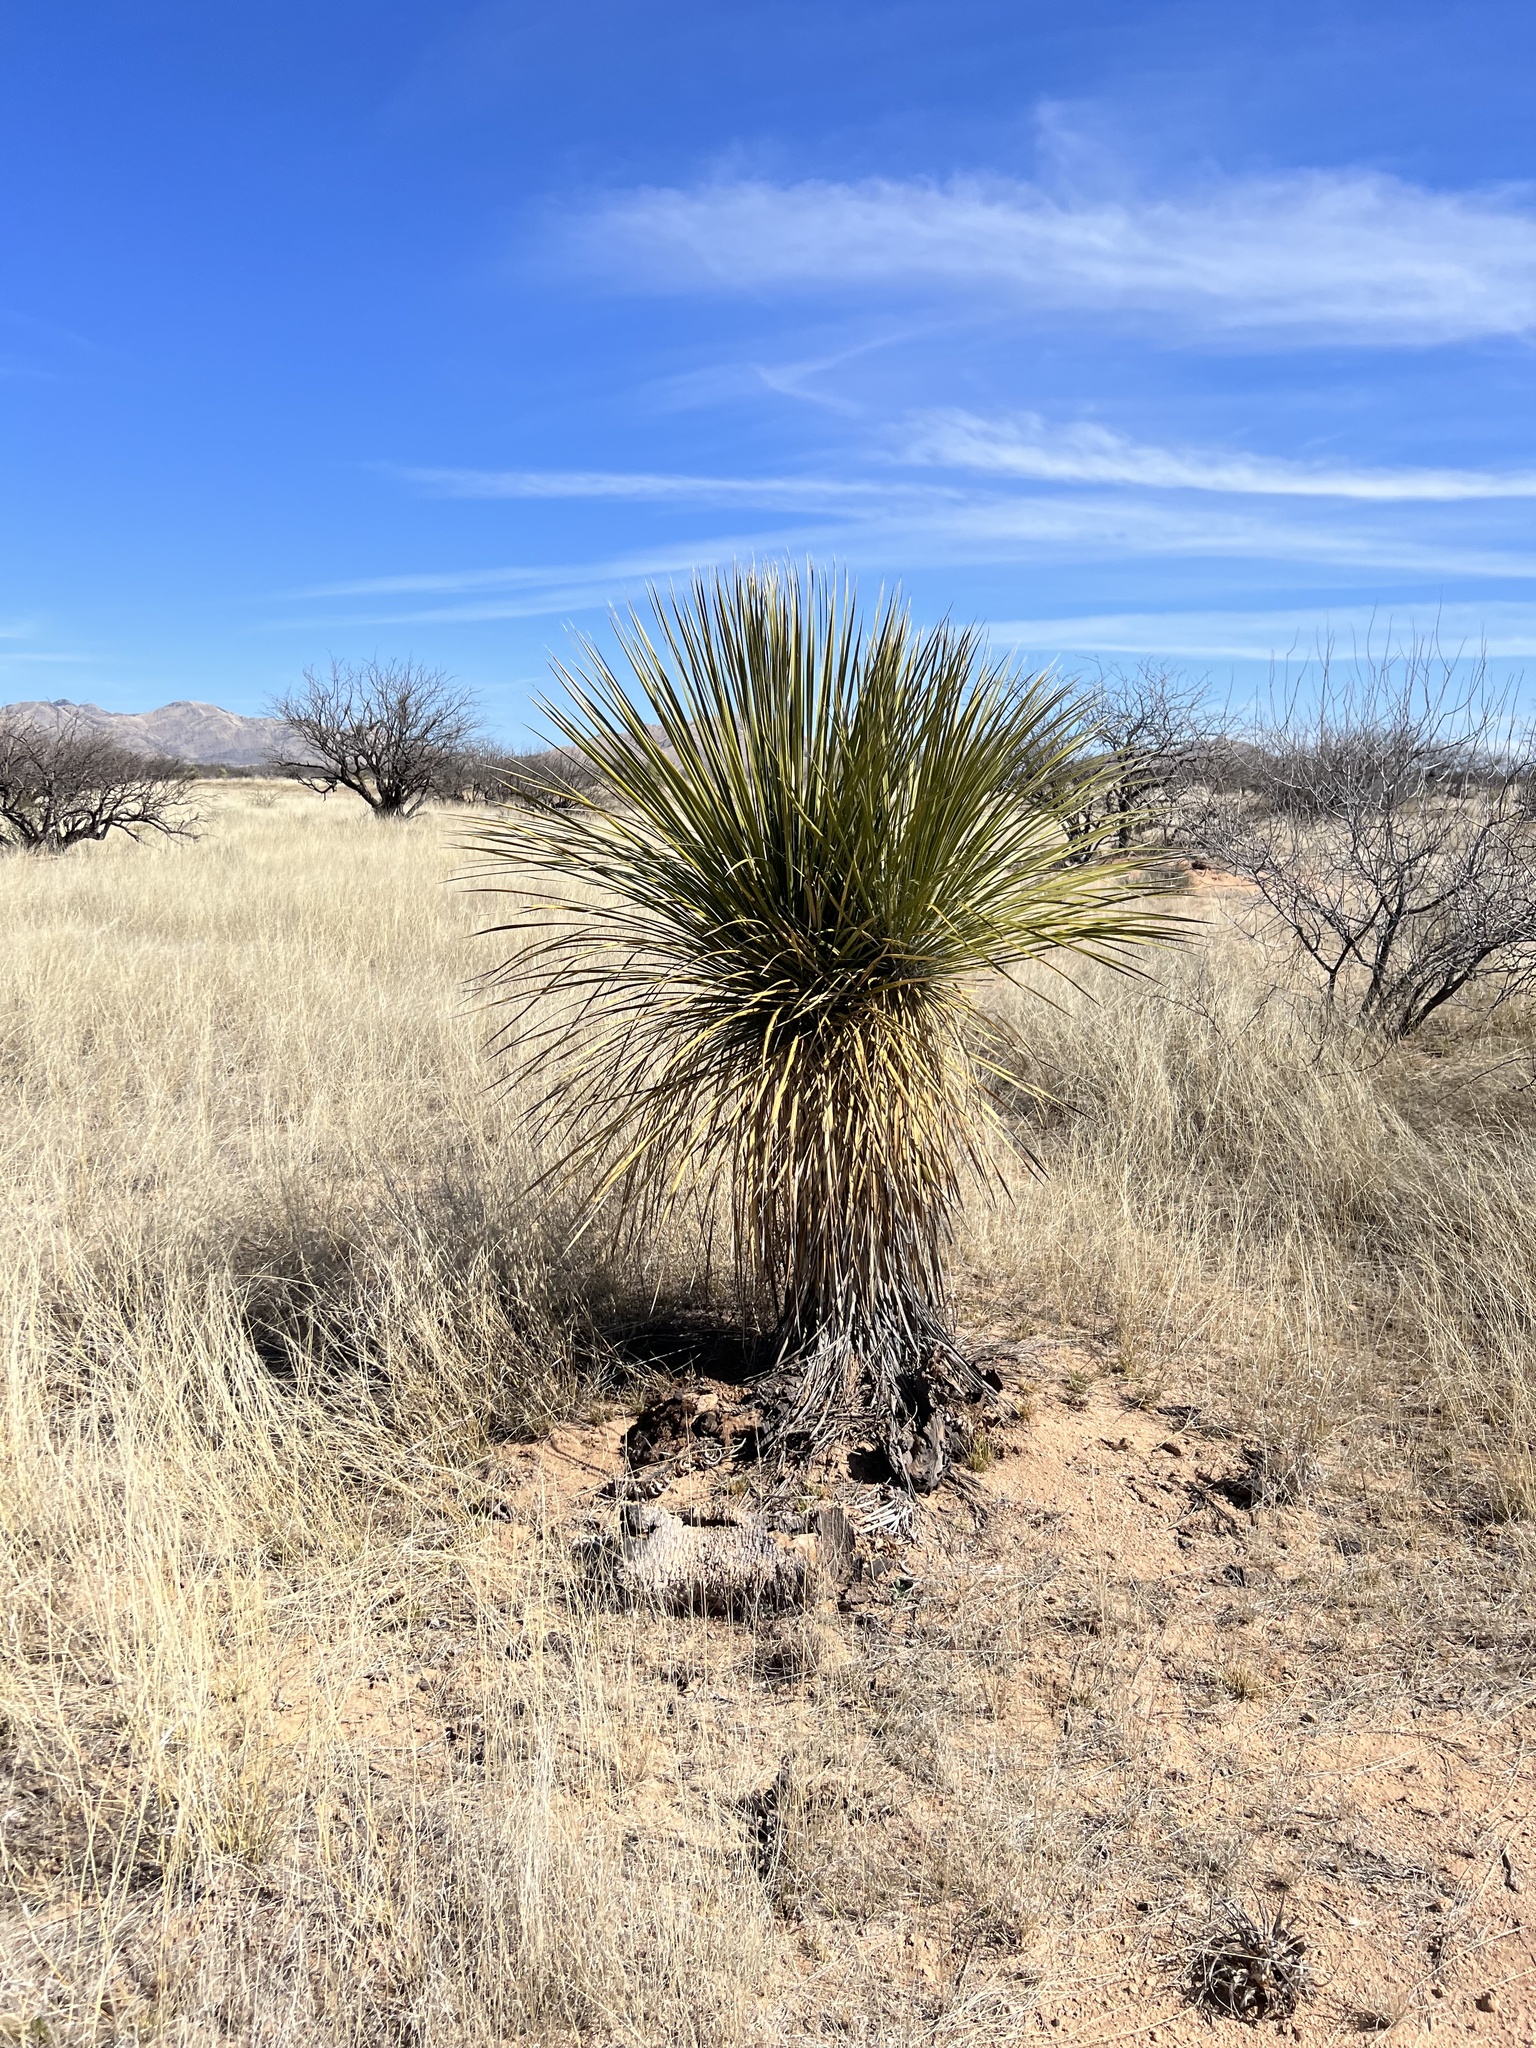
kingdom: Plantae
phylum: Tracheophyta
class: Liliopsida
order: Asparagales
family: Asparagaceae
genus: Yucca
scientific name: Yucca elata
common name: Palmella
